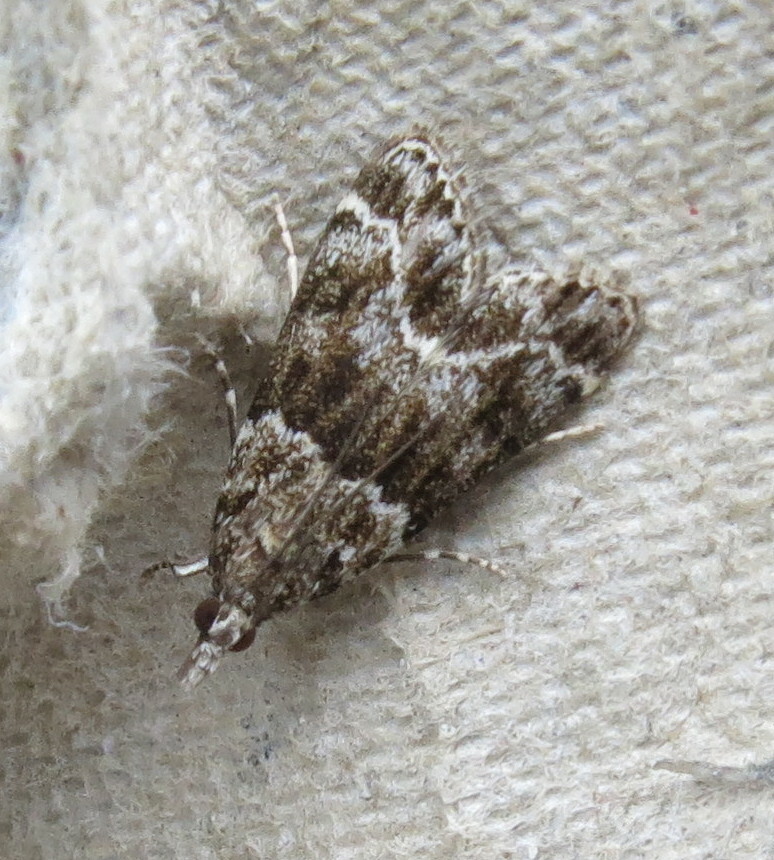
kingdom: Animalia
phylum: Arthropoda
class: Insecta
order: Lepidoptera
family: Crambidae
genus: Eudonia
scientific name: Eudonia mercurella
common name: Small grey
